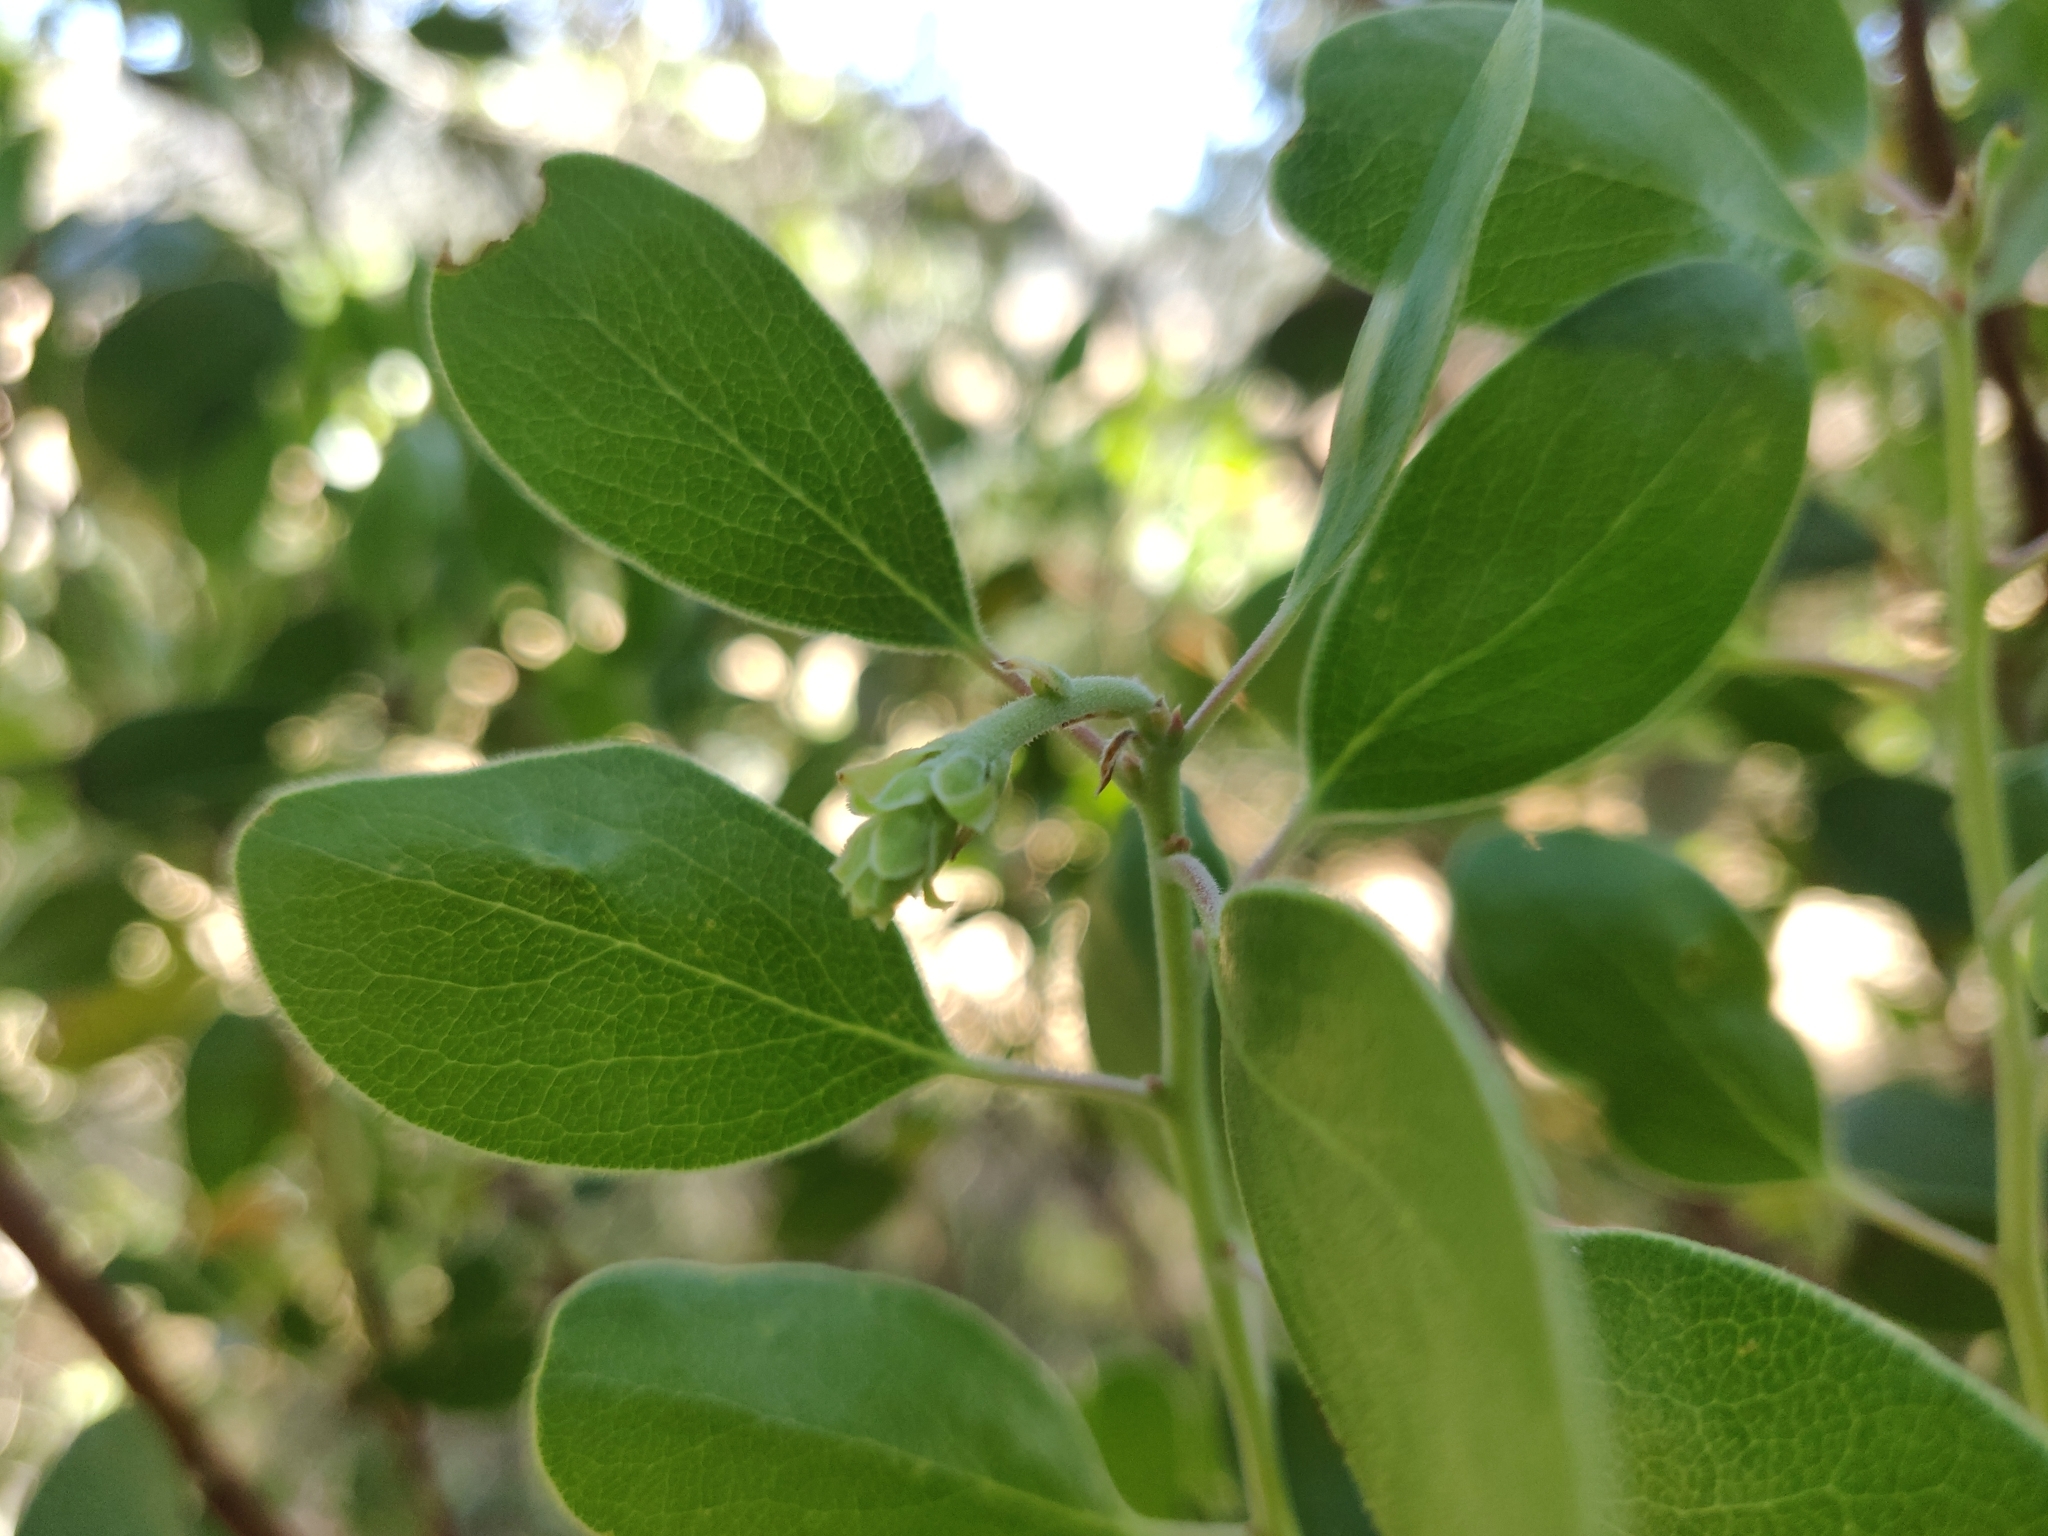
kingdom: Plantae
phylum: Tracheophyta
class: Magnoliopsida
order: Ericales
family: Ericaceae
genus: Arctostaphylos
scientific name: Arctostaphylos manzanita
